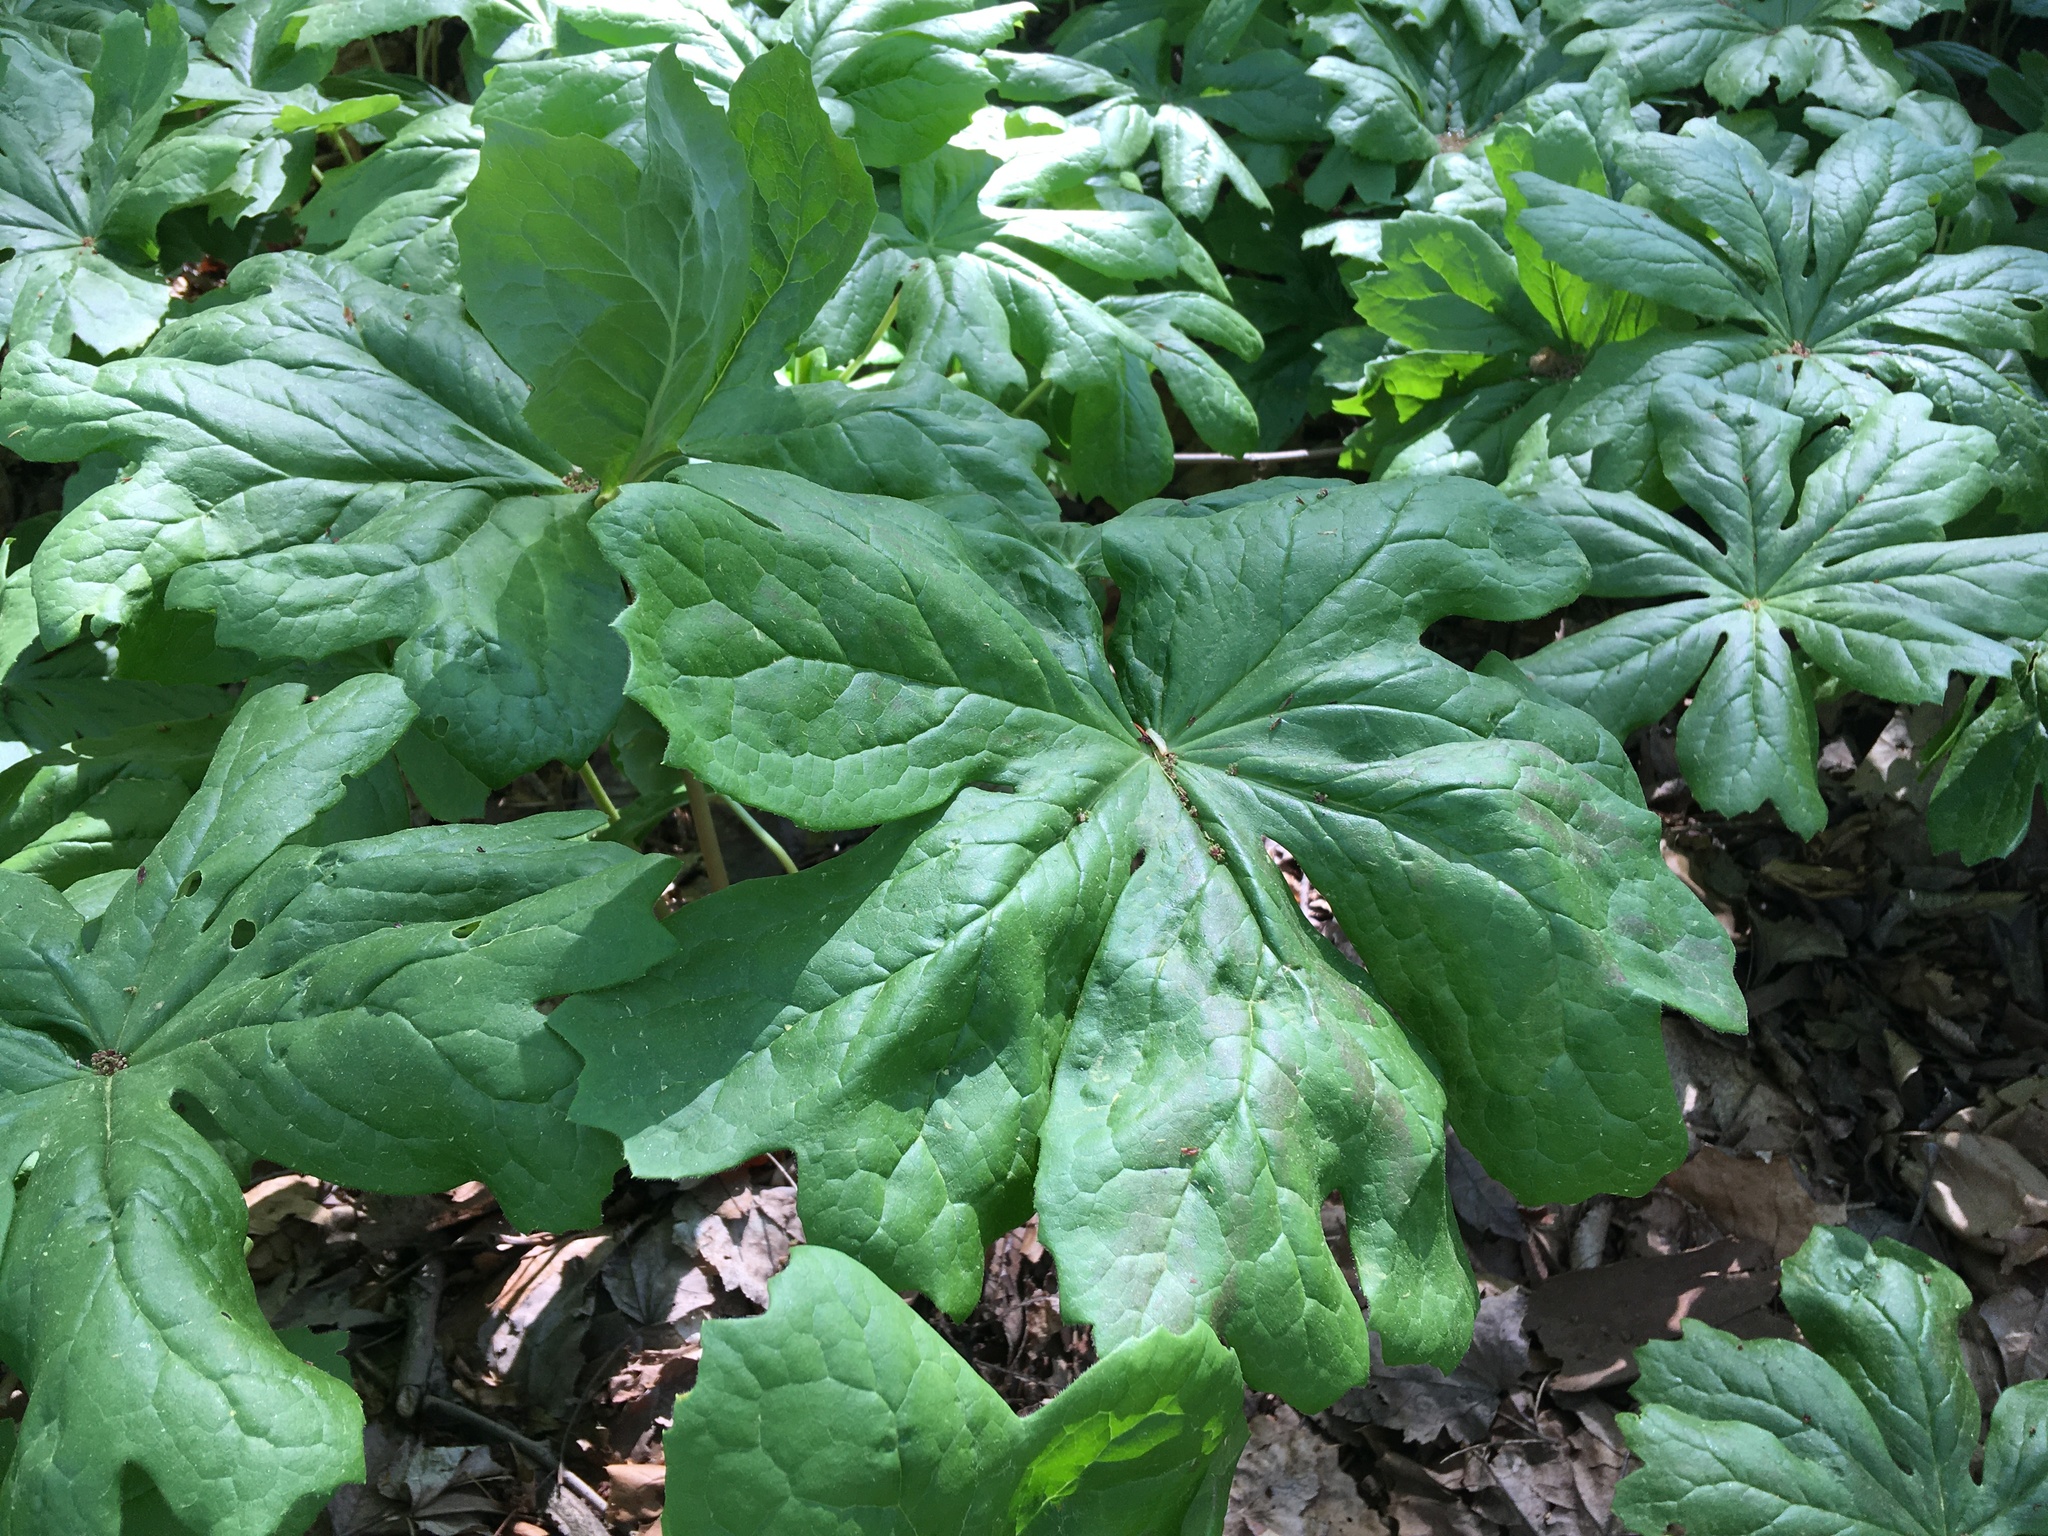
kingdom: Plantae
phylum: Tracheophyta
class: Magnoliopsida
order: Ranunculales
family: Berberidaceae
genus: Podophyllum
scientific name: Podophyllum peltatum
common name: Wild mandrake
